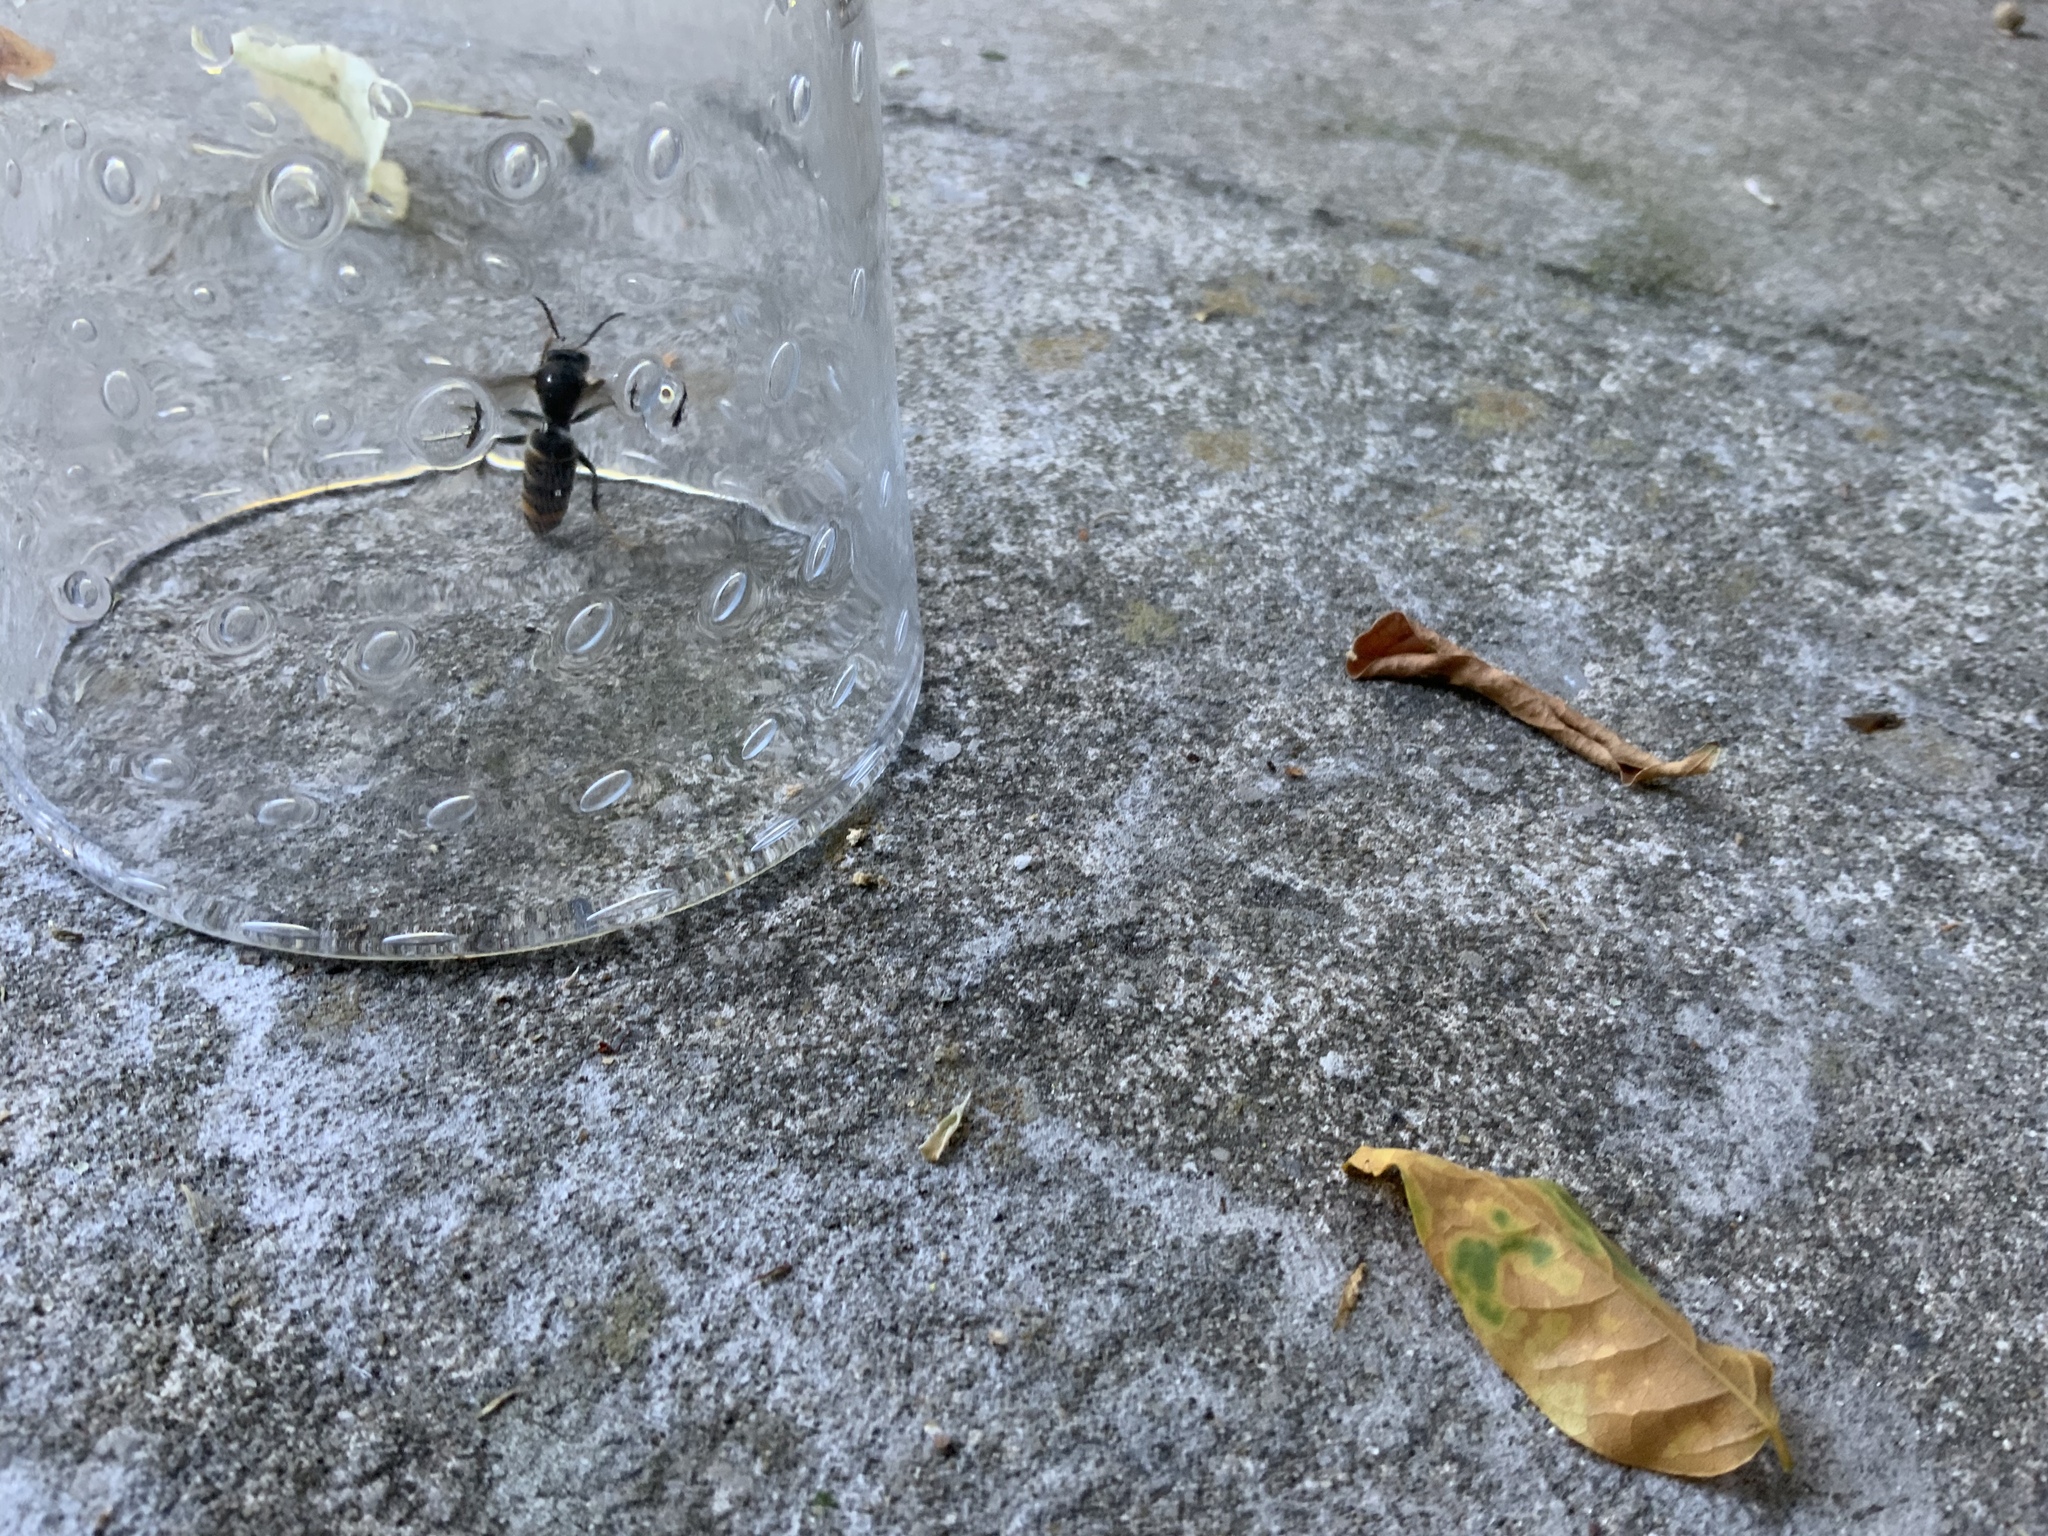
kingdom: Animalia
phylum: Arthropoda
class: Insecta
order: Hymenoptera
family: Vespidae
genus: Vespa
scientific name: Vespa velutina
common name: Asian hornet
